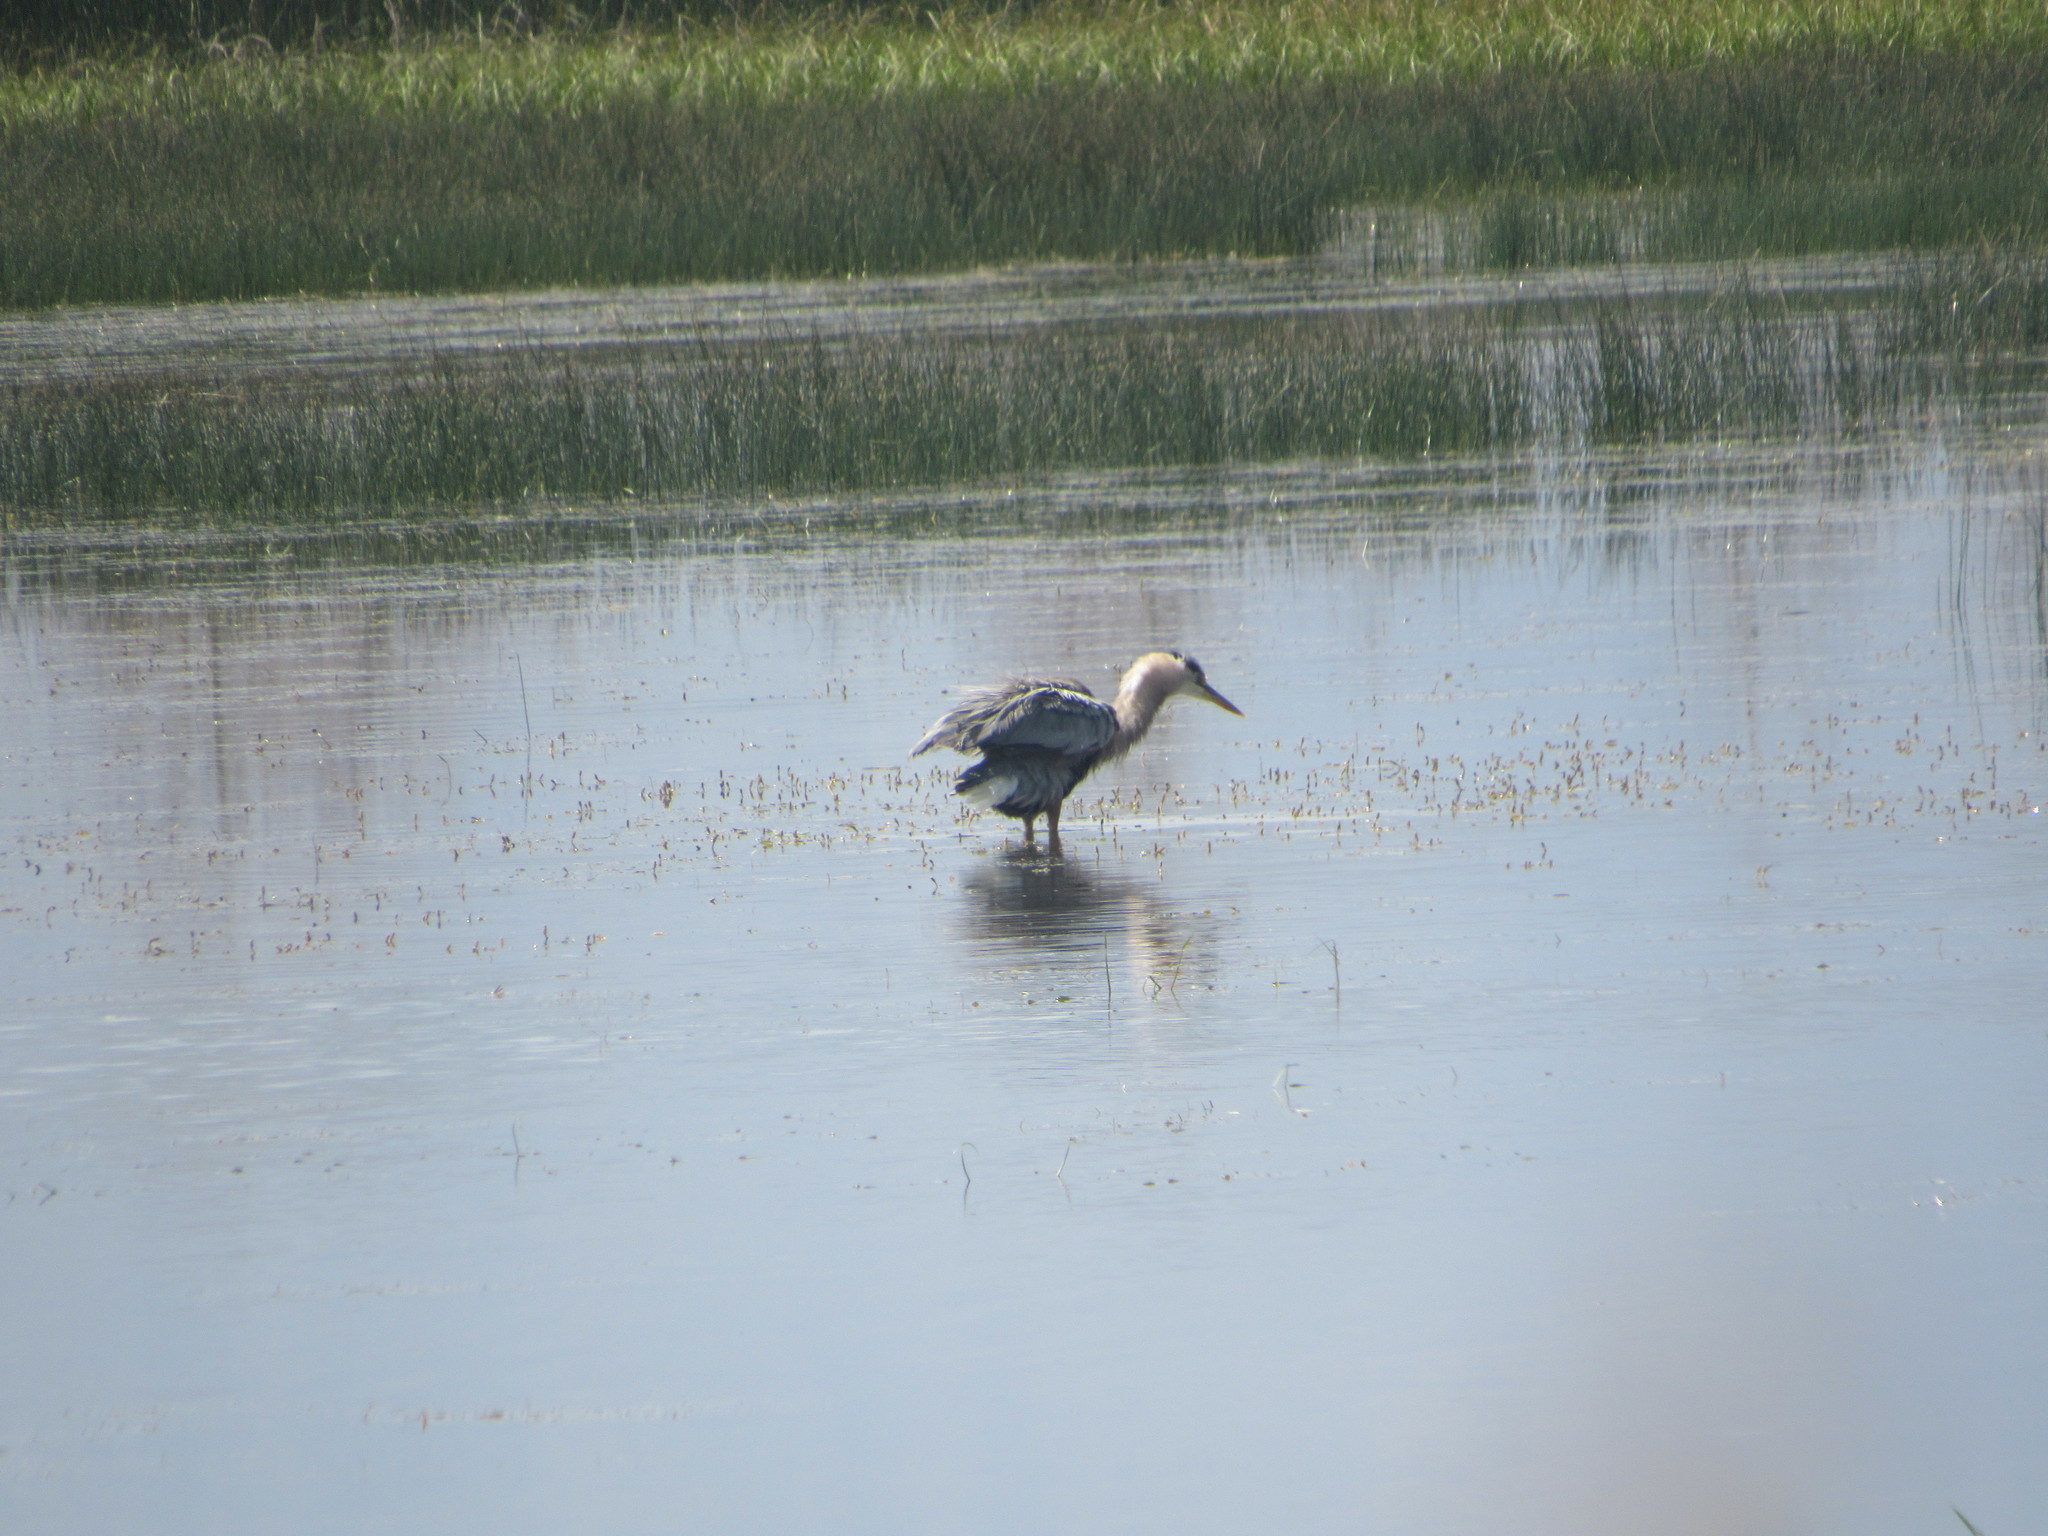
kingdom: Animalia
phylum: Chordata
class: Aves
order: Pelecaniformes
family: Ardeidae
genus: Ardea
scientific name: Ardea herodias
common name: Great blue heron
